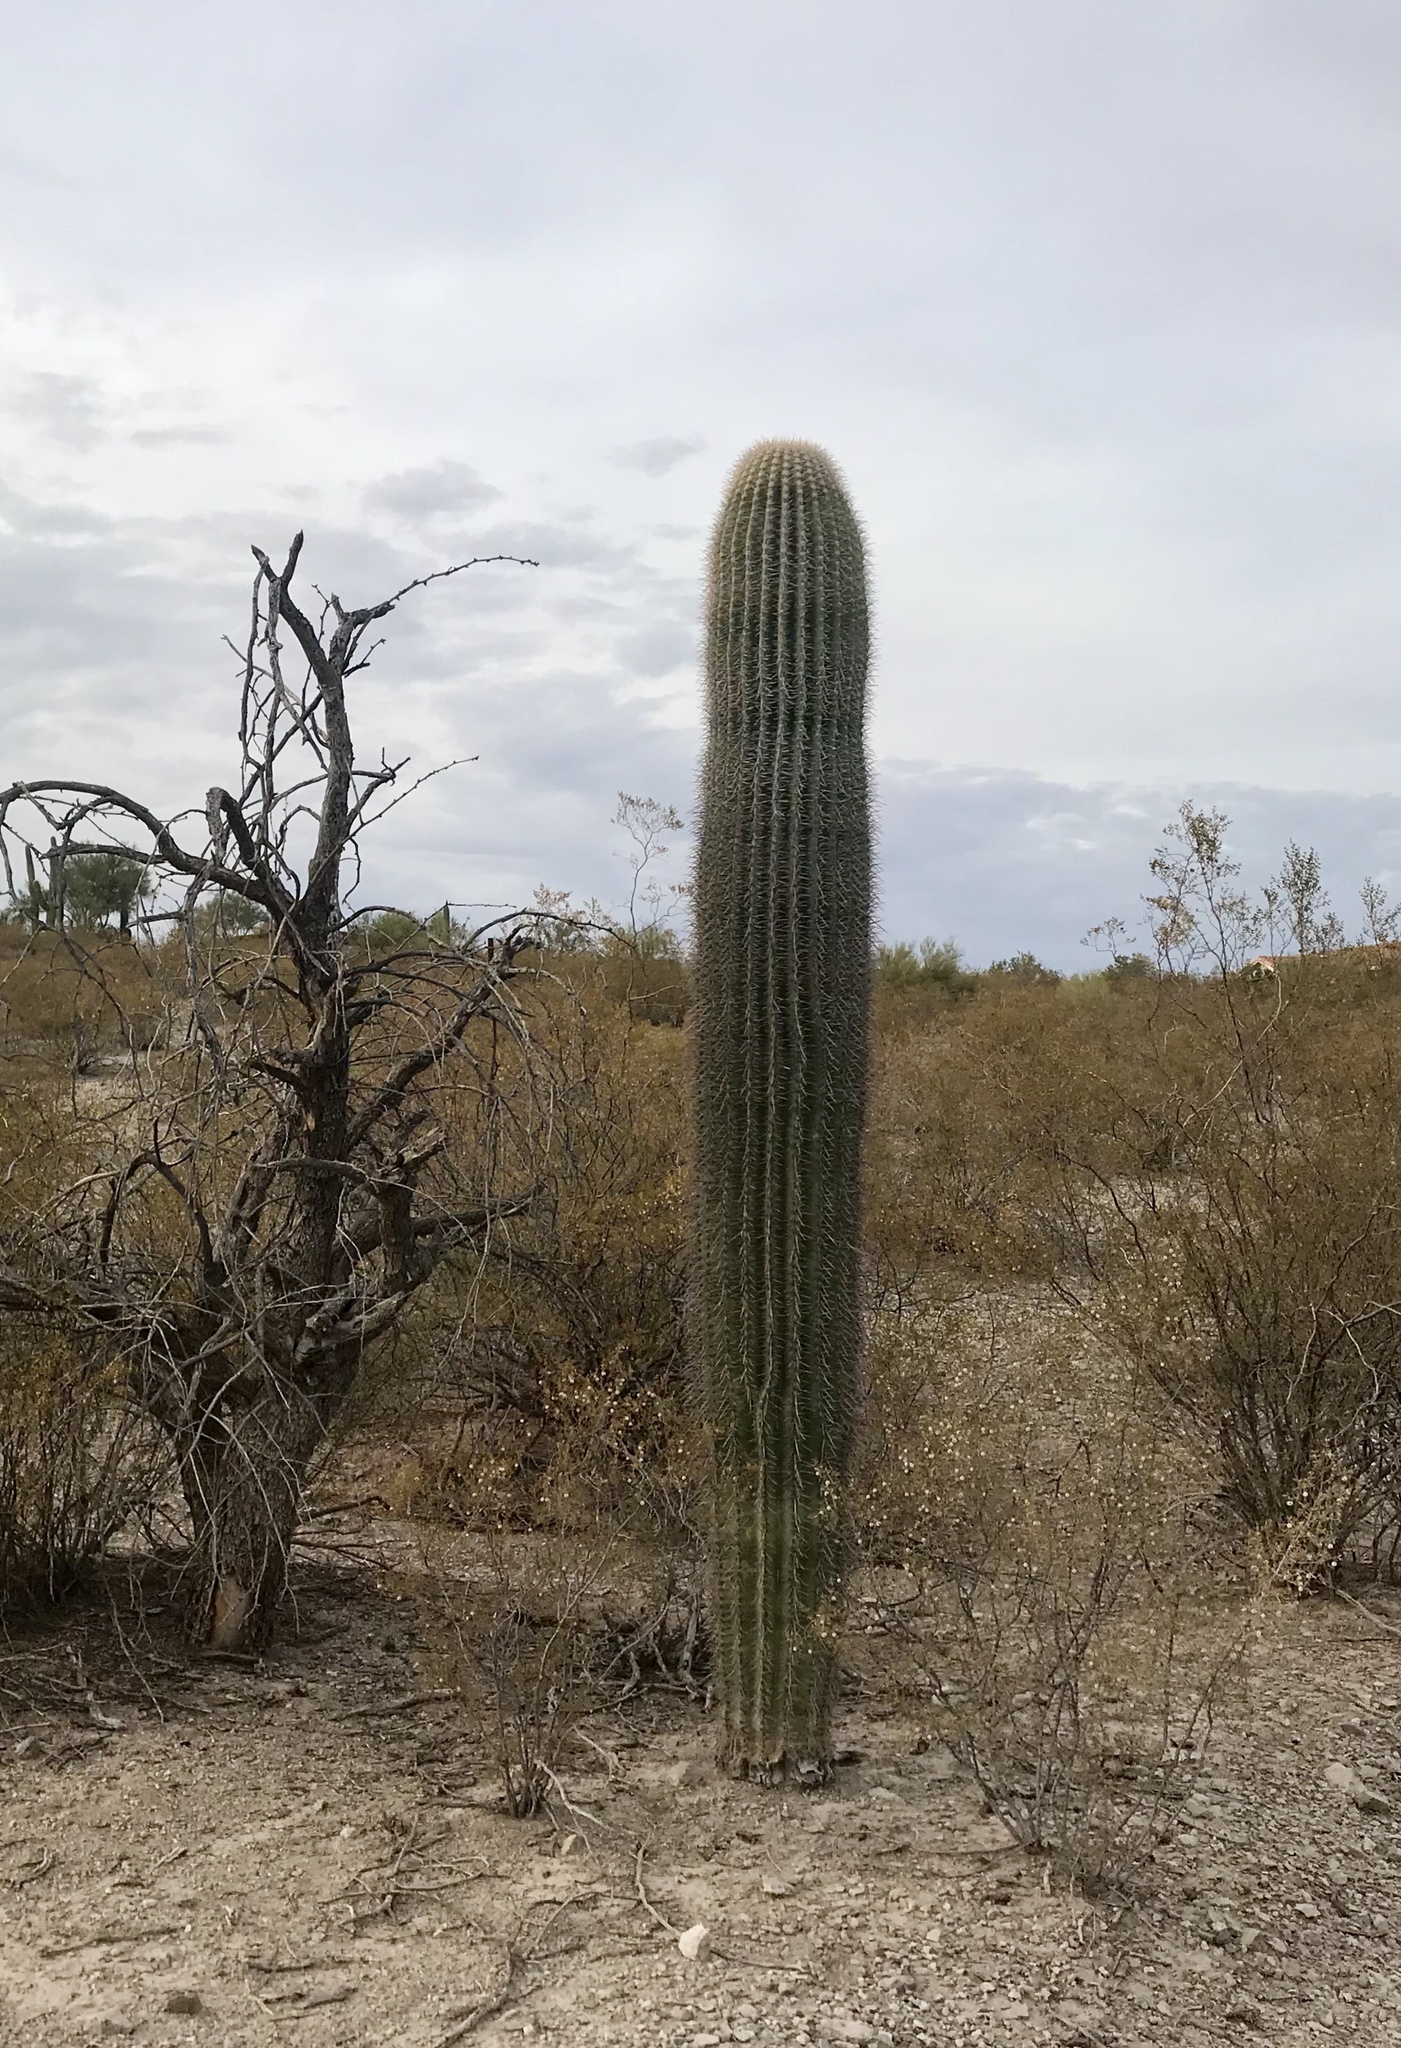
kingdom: Plantae
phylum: Tracheophyta
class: Magnoliopsida
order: Caryophyllales
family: Cactaceae
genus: Carnegiea
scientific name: Carnegiea gigantea
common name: Saguaro
